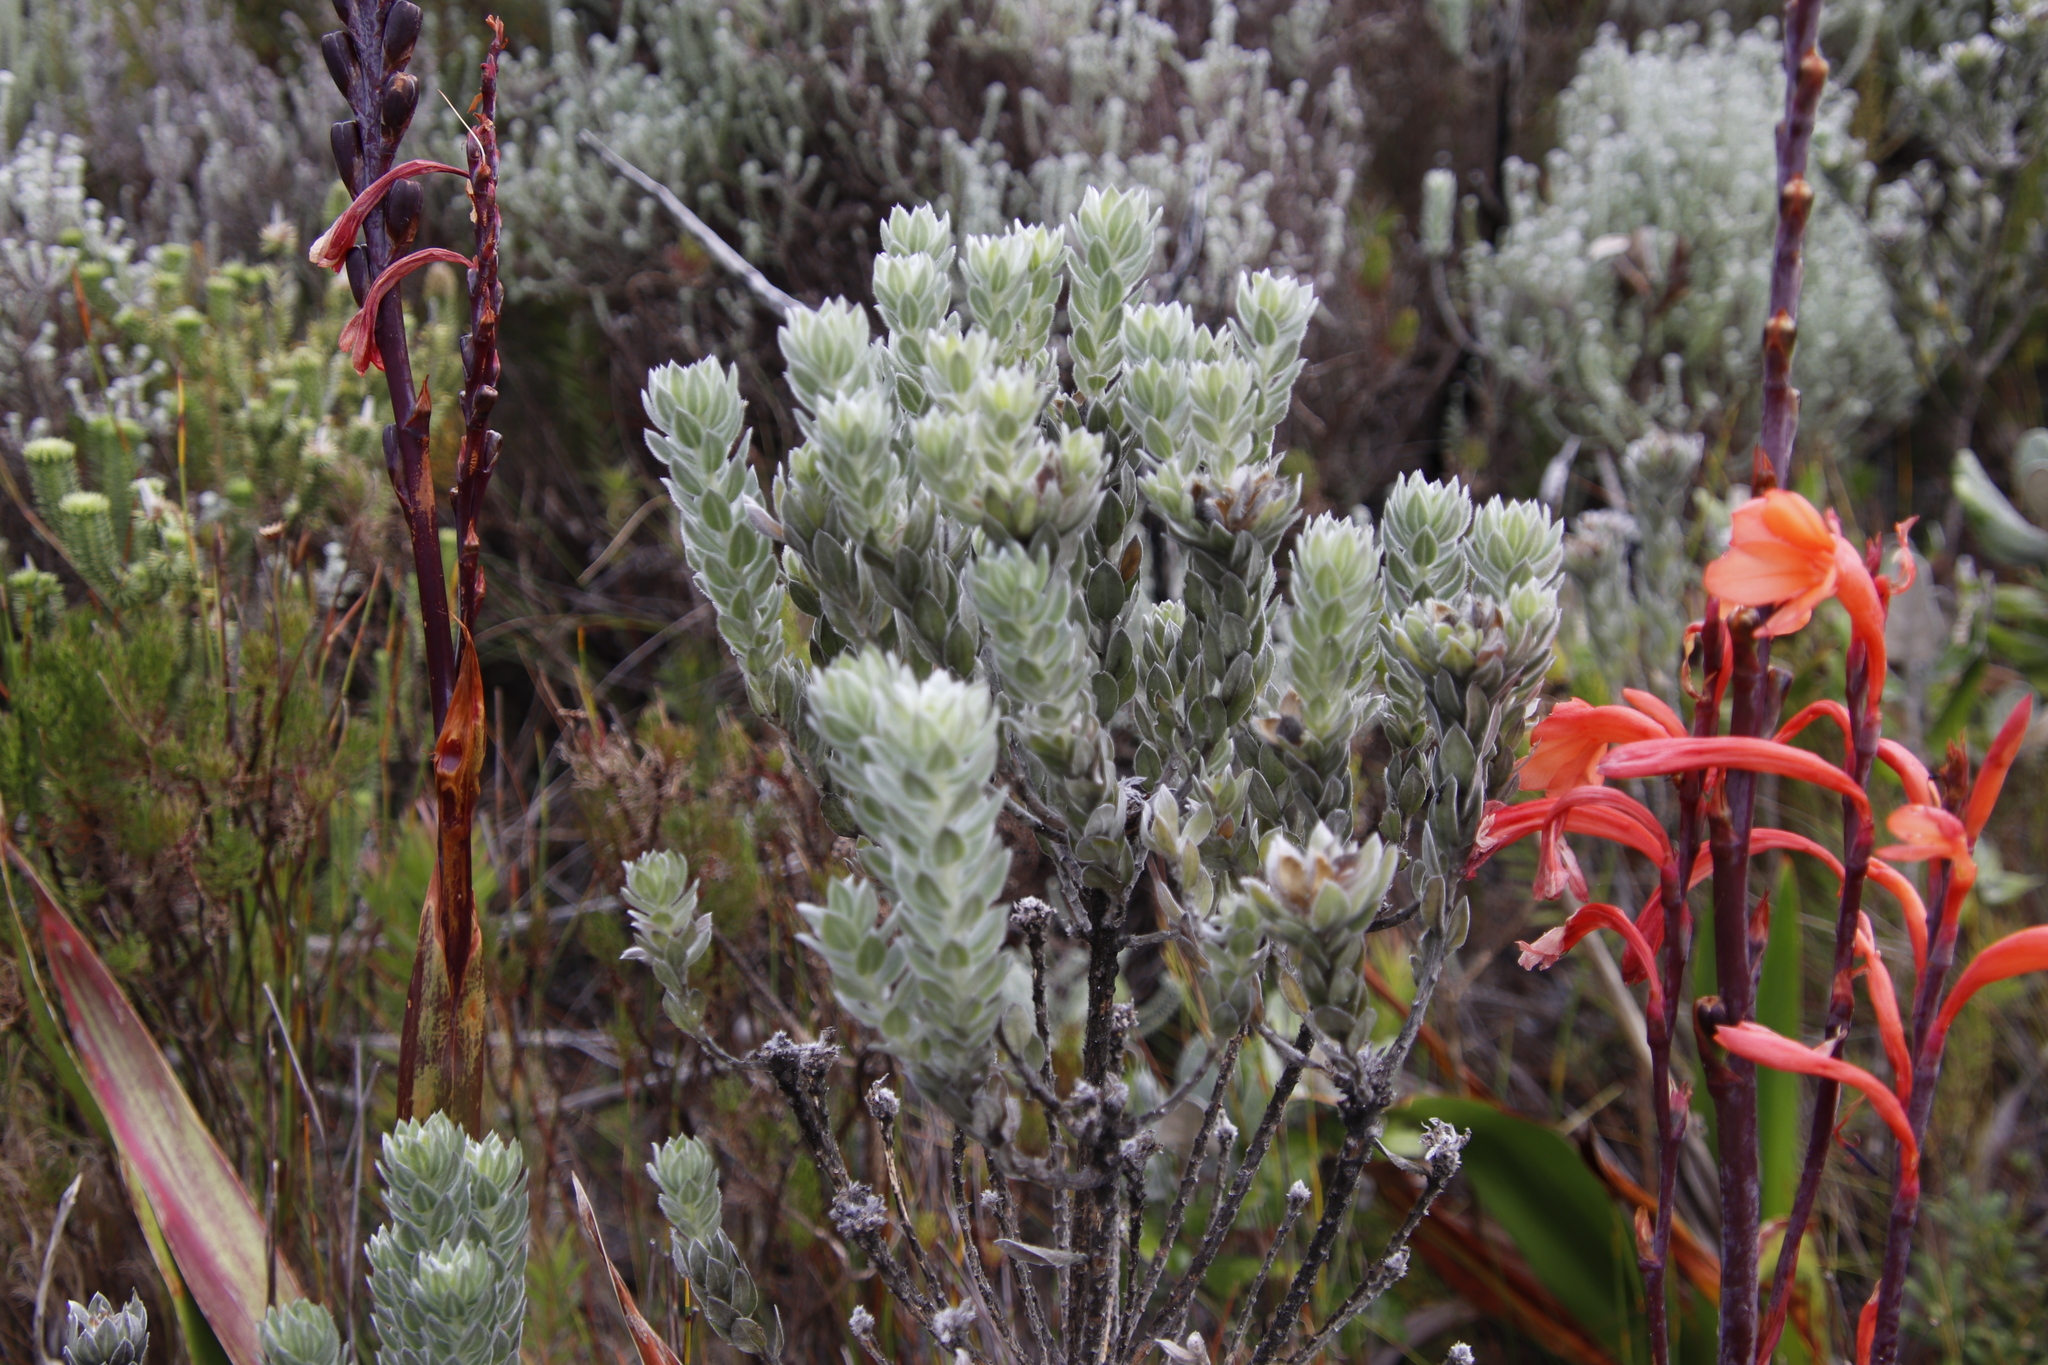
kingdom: Plantae
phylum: Tracheophyta
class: Magnoliopsida
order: Fabales
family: Fabaceae
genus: Xiphotheca
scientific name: Xiphotheca fruticosa
